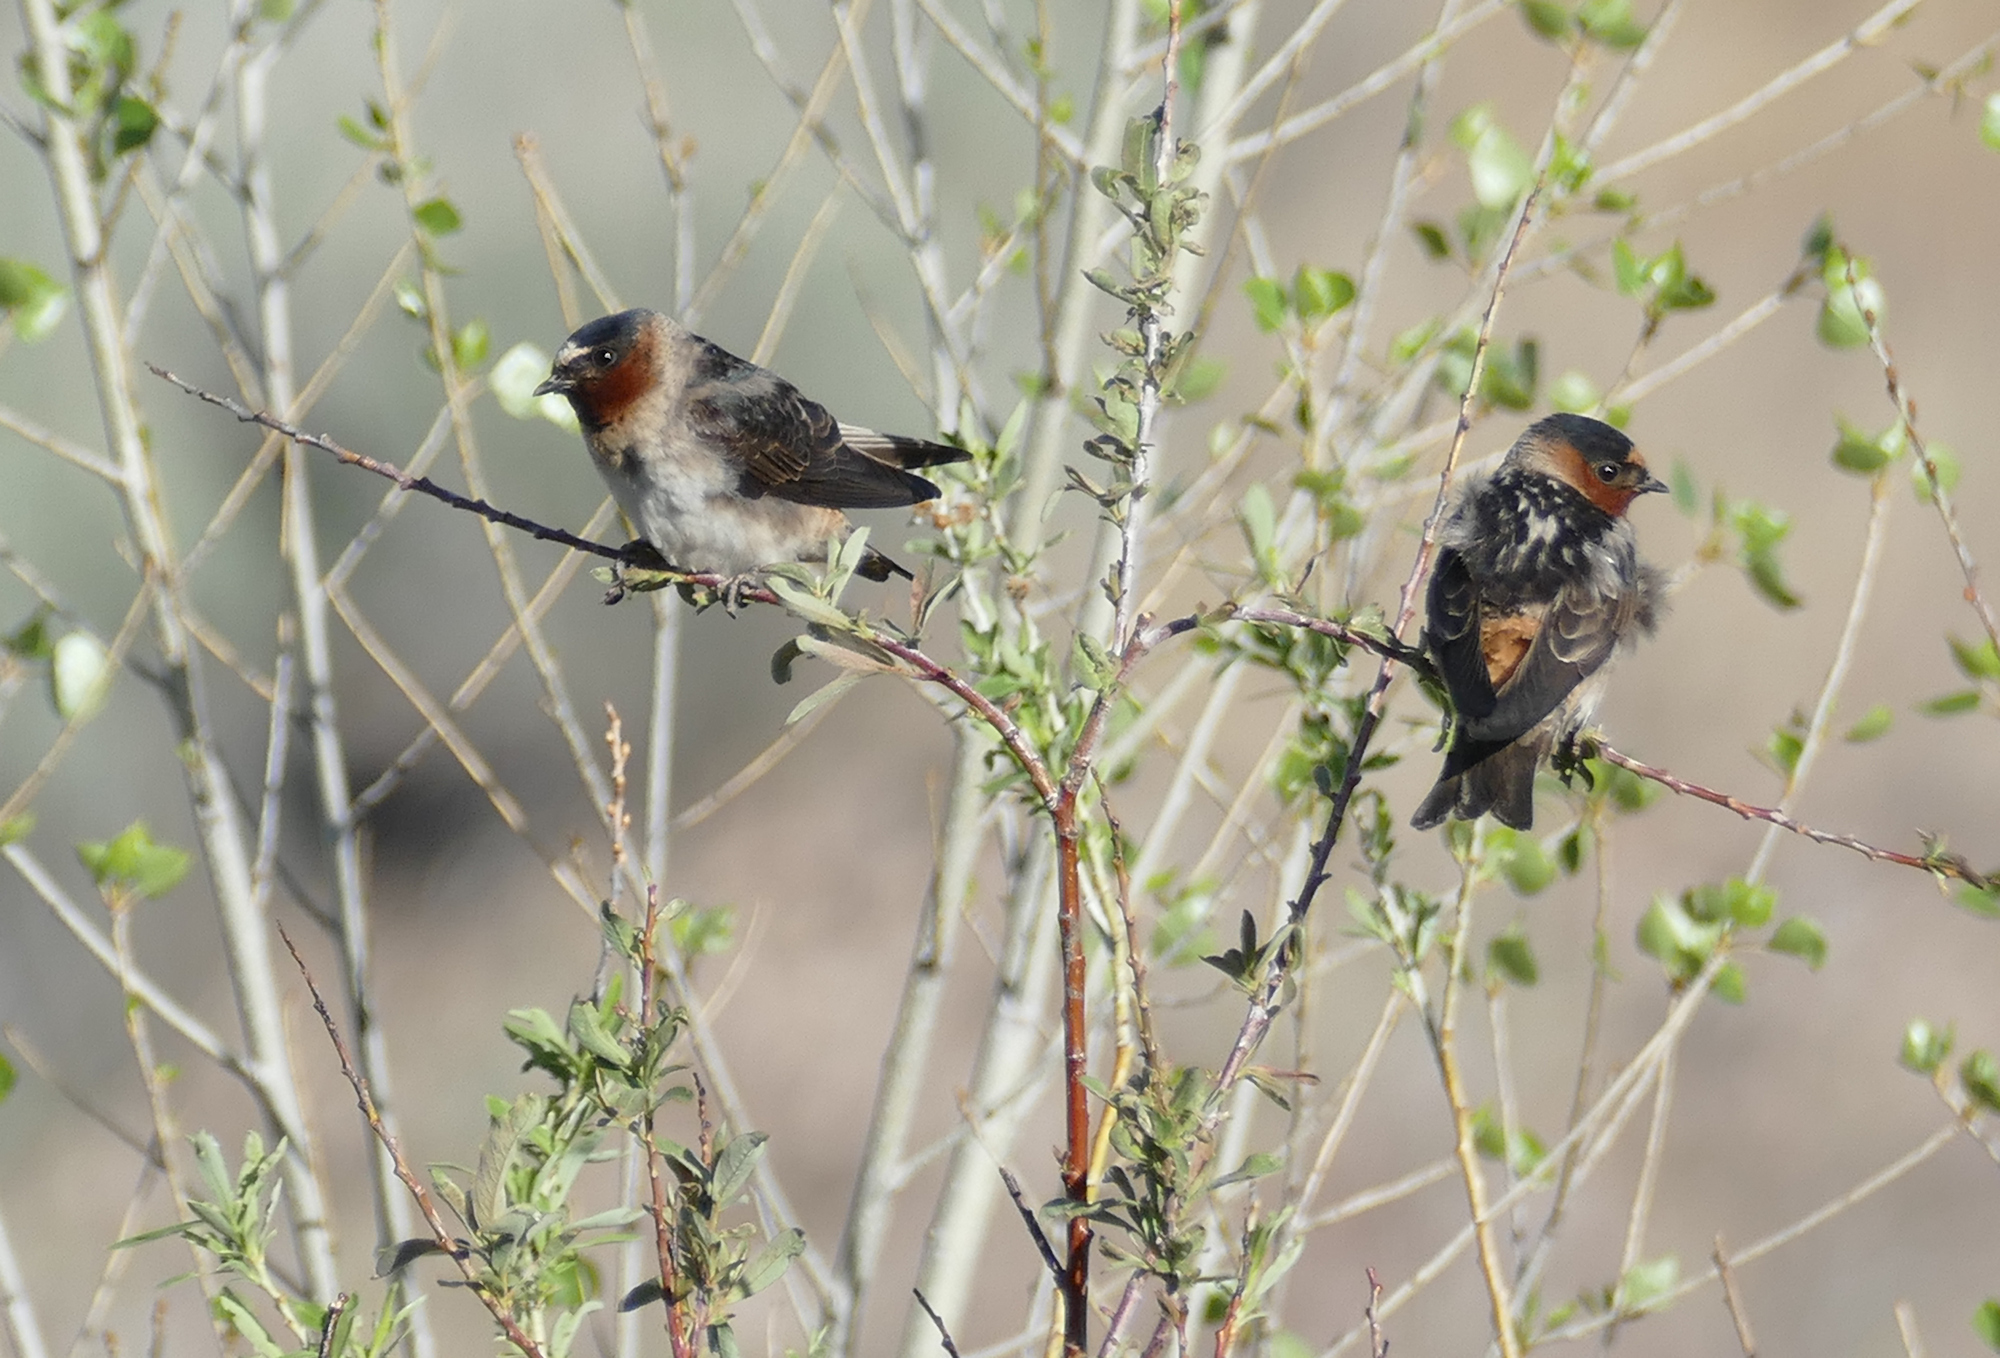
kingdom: Animalia
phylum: Chordata
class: Aves
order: Passeriformes
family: Hirundinidae
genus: Petrochelidon
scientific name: Petrochelidon pyrrhonota
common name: American cliff swallow
